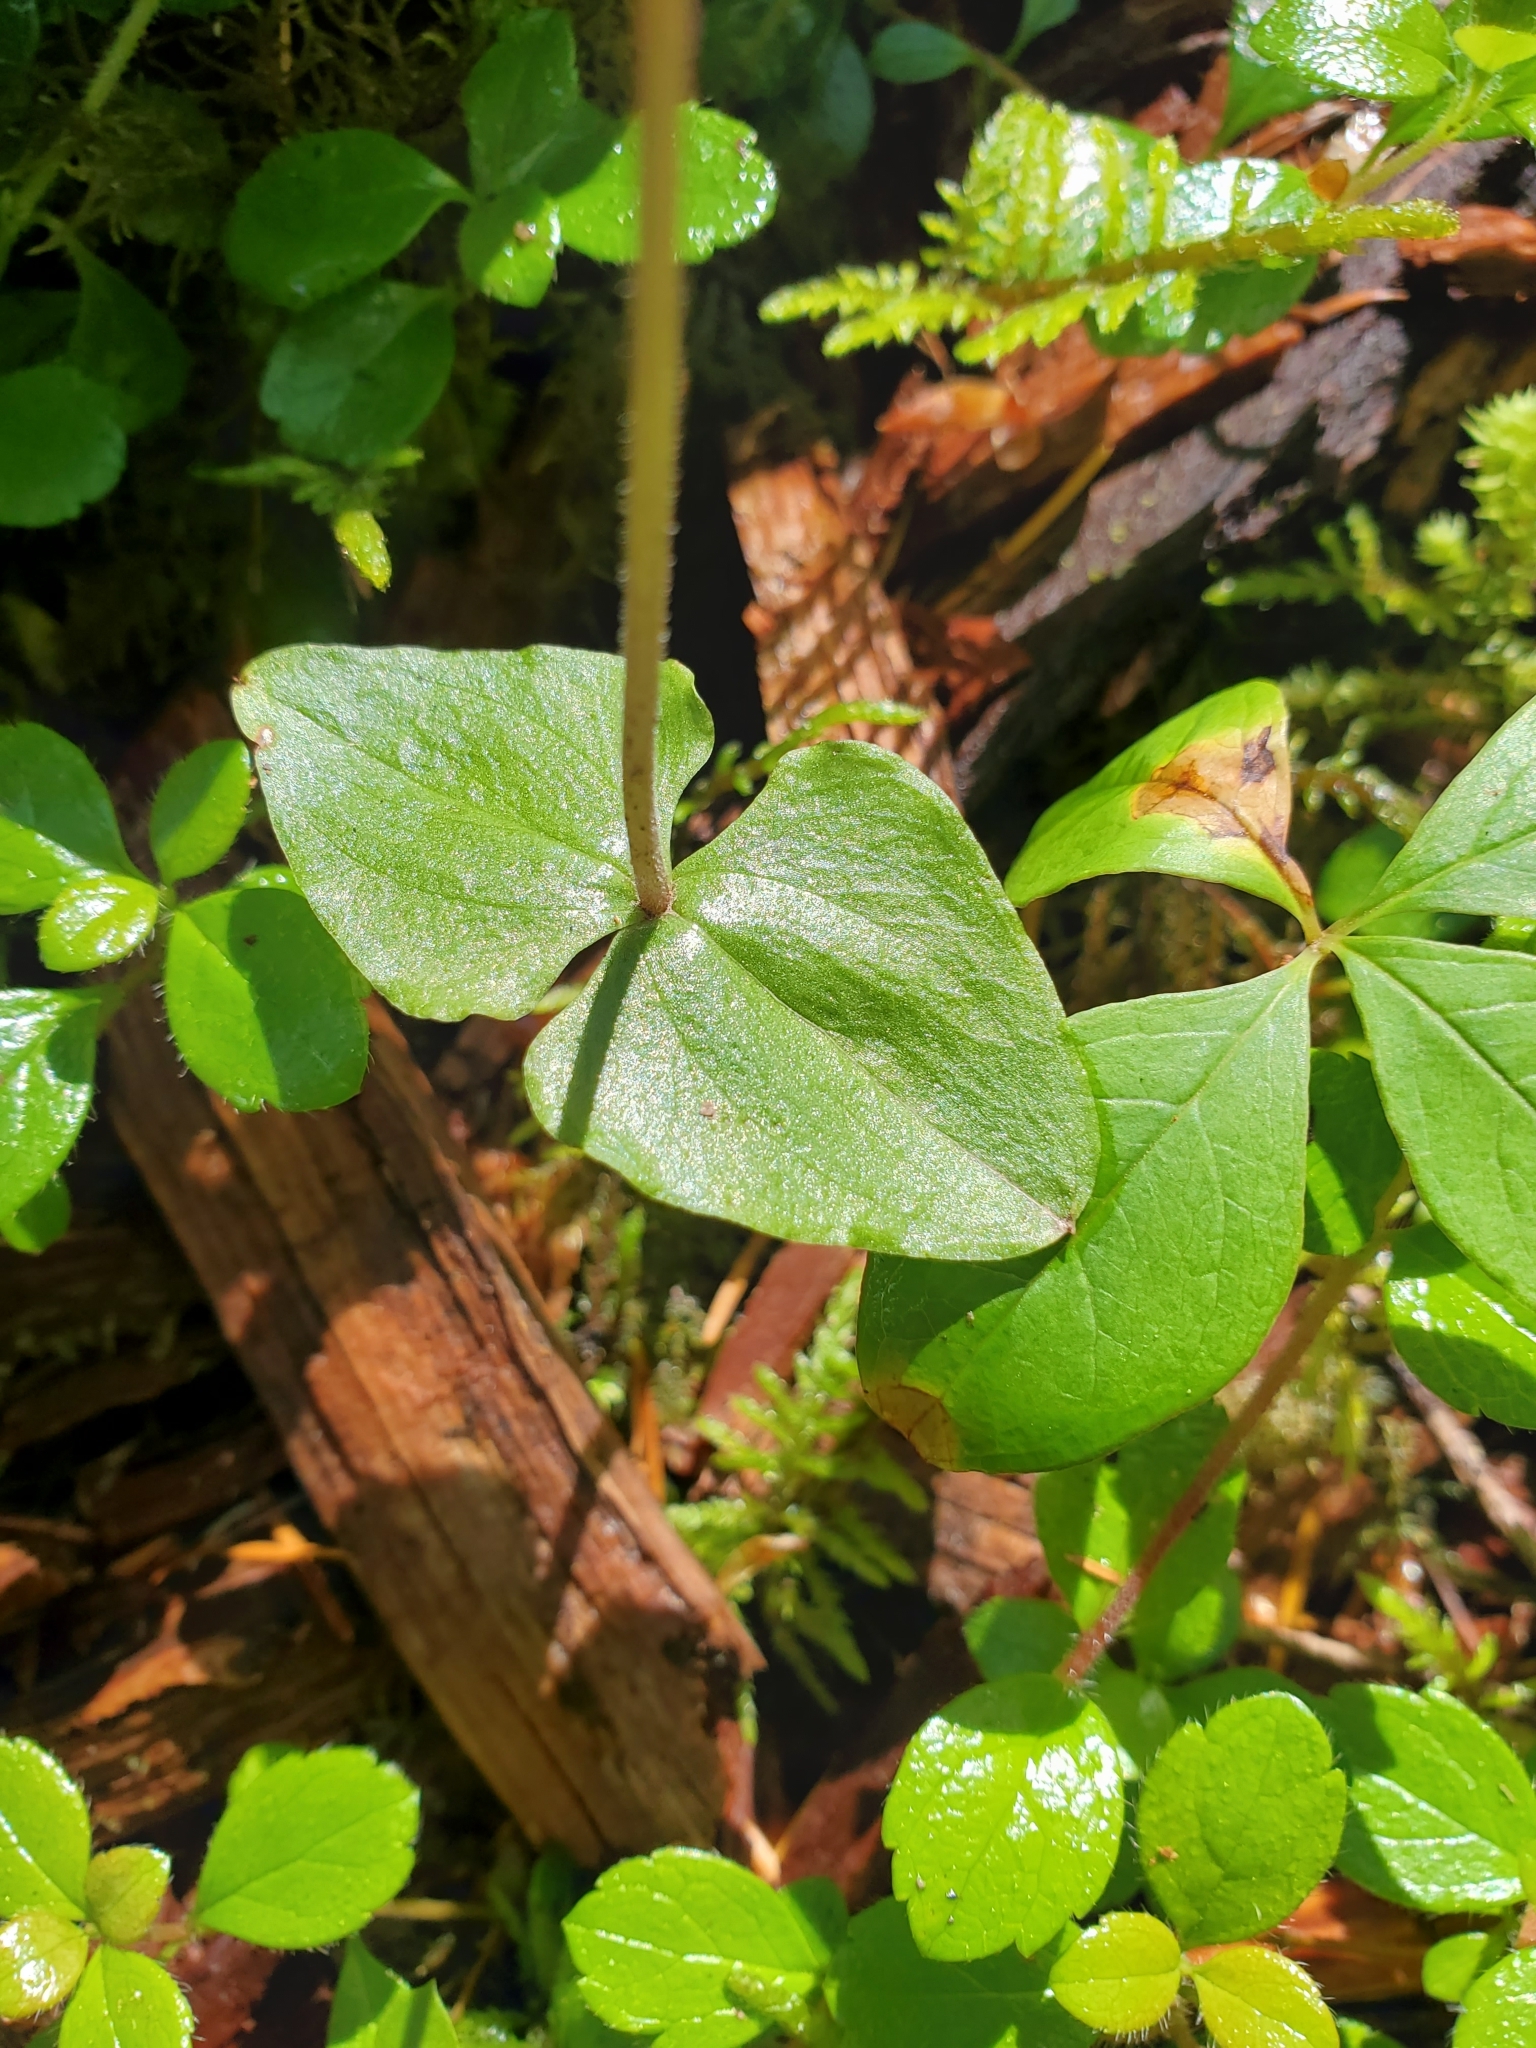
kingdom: Plantae
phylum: Tracheophyta
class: Liliopsida
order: Asparagales
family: Orchidaceae
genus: Neottia
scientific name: Neottia cordata
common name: Lesser twayblade
